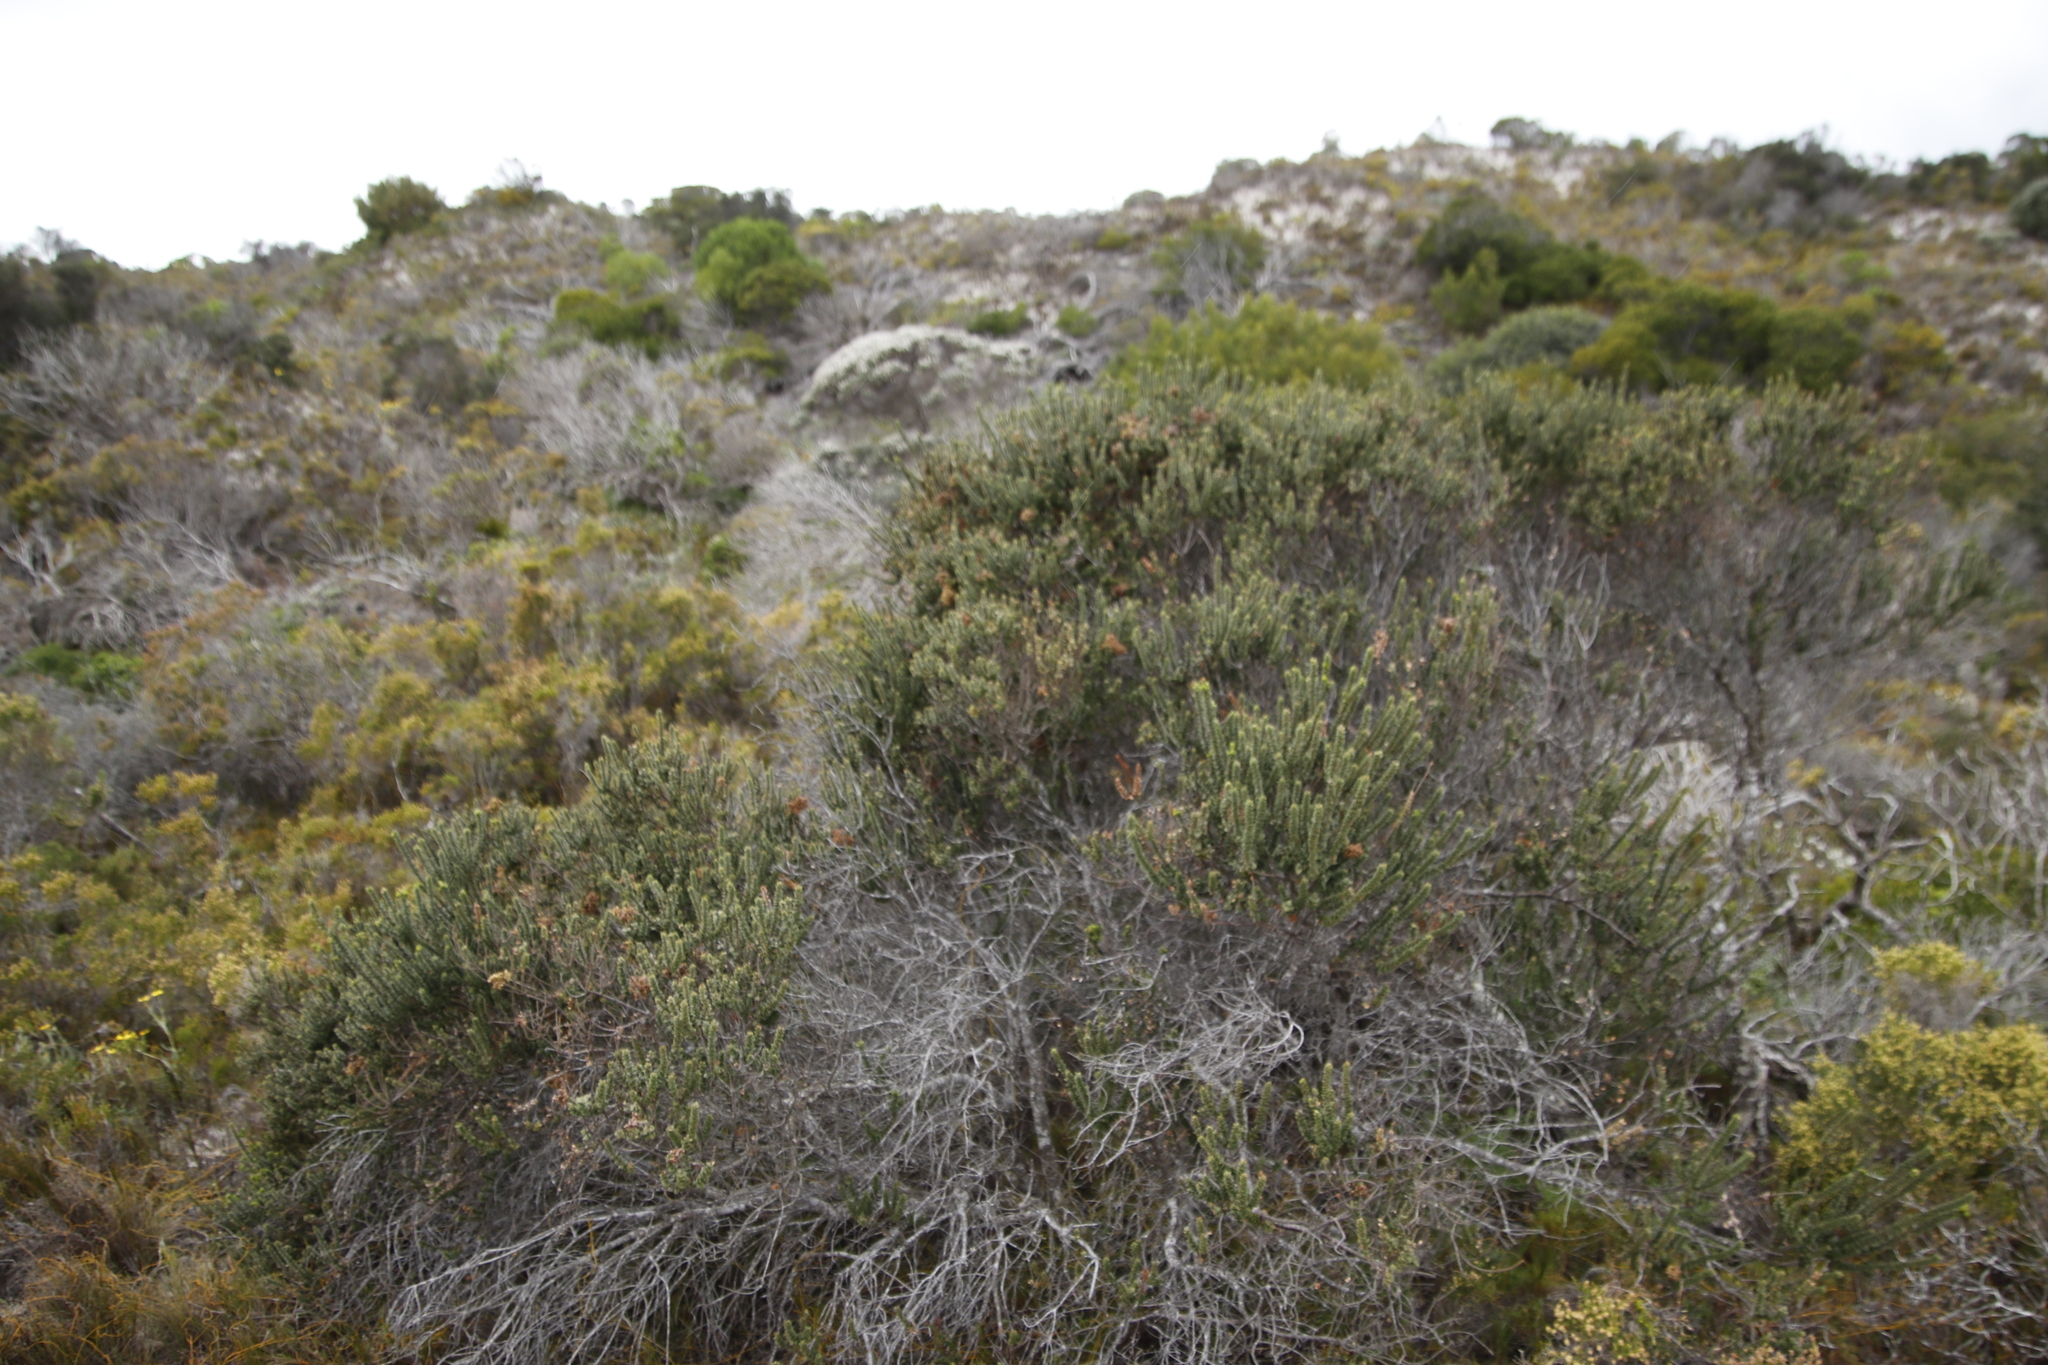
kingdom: Plantae
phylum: Tracheophyta
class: Magnoliopsida
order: Fagales
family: Myricaceae
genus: Morella
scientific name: Morella cordifolia
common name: Waxberry
